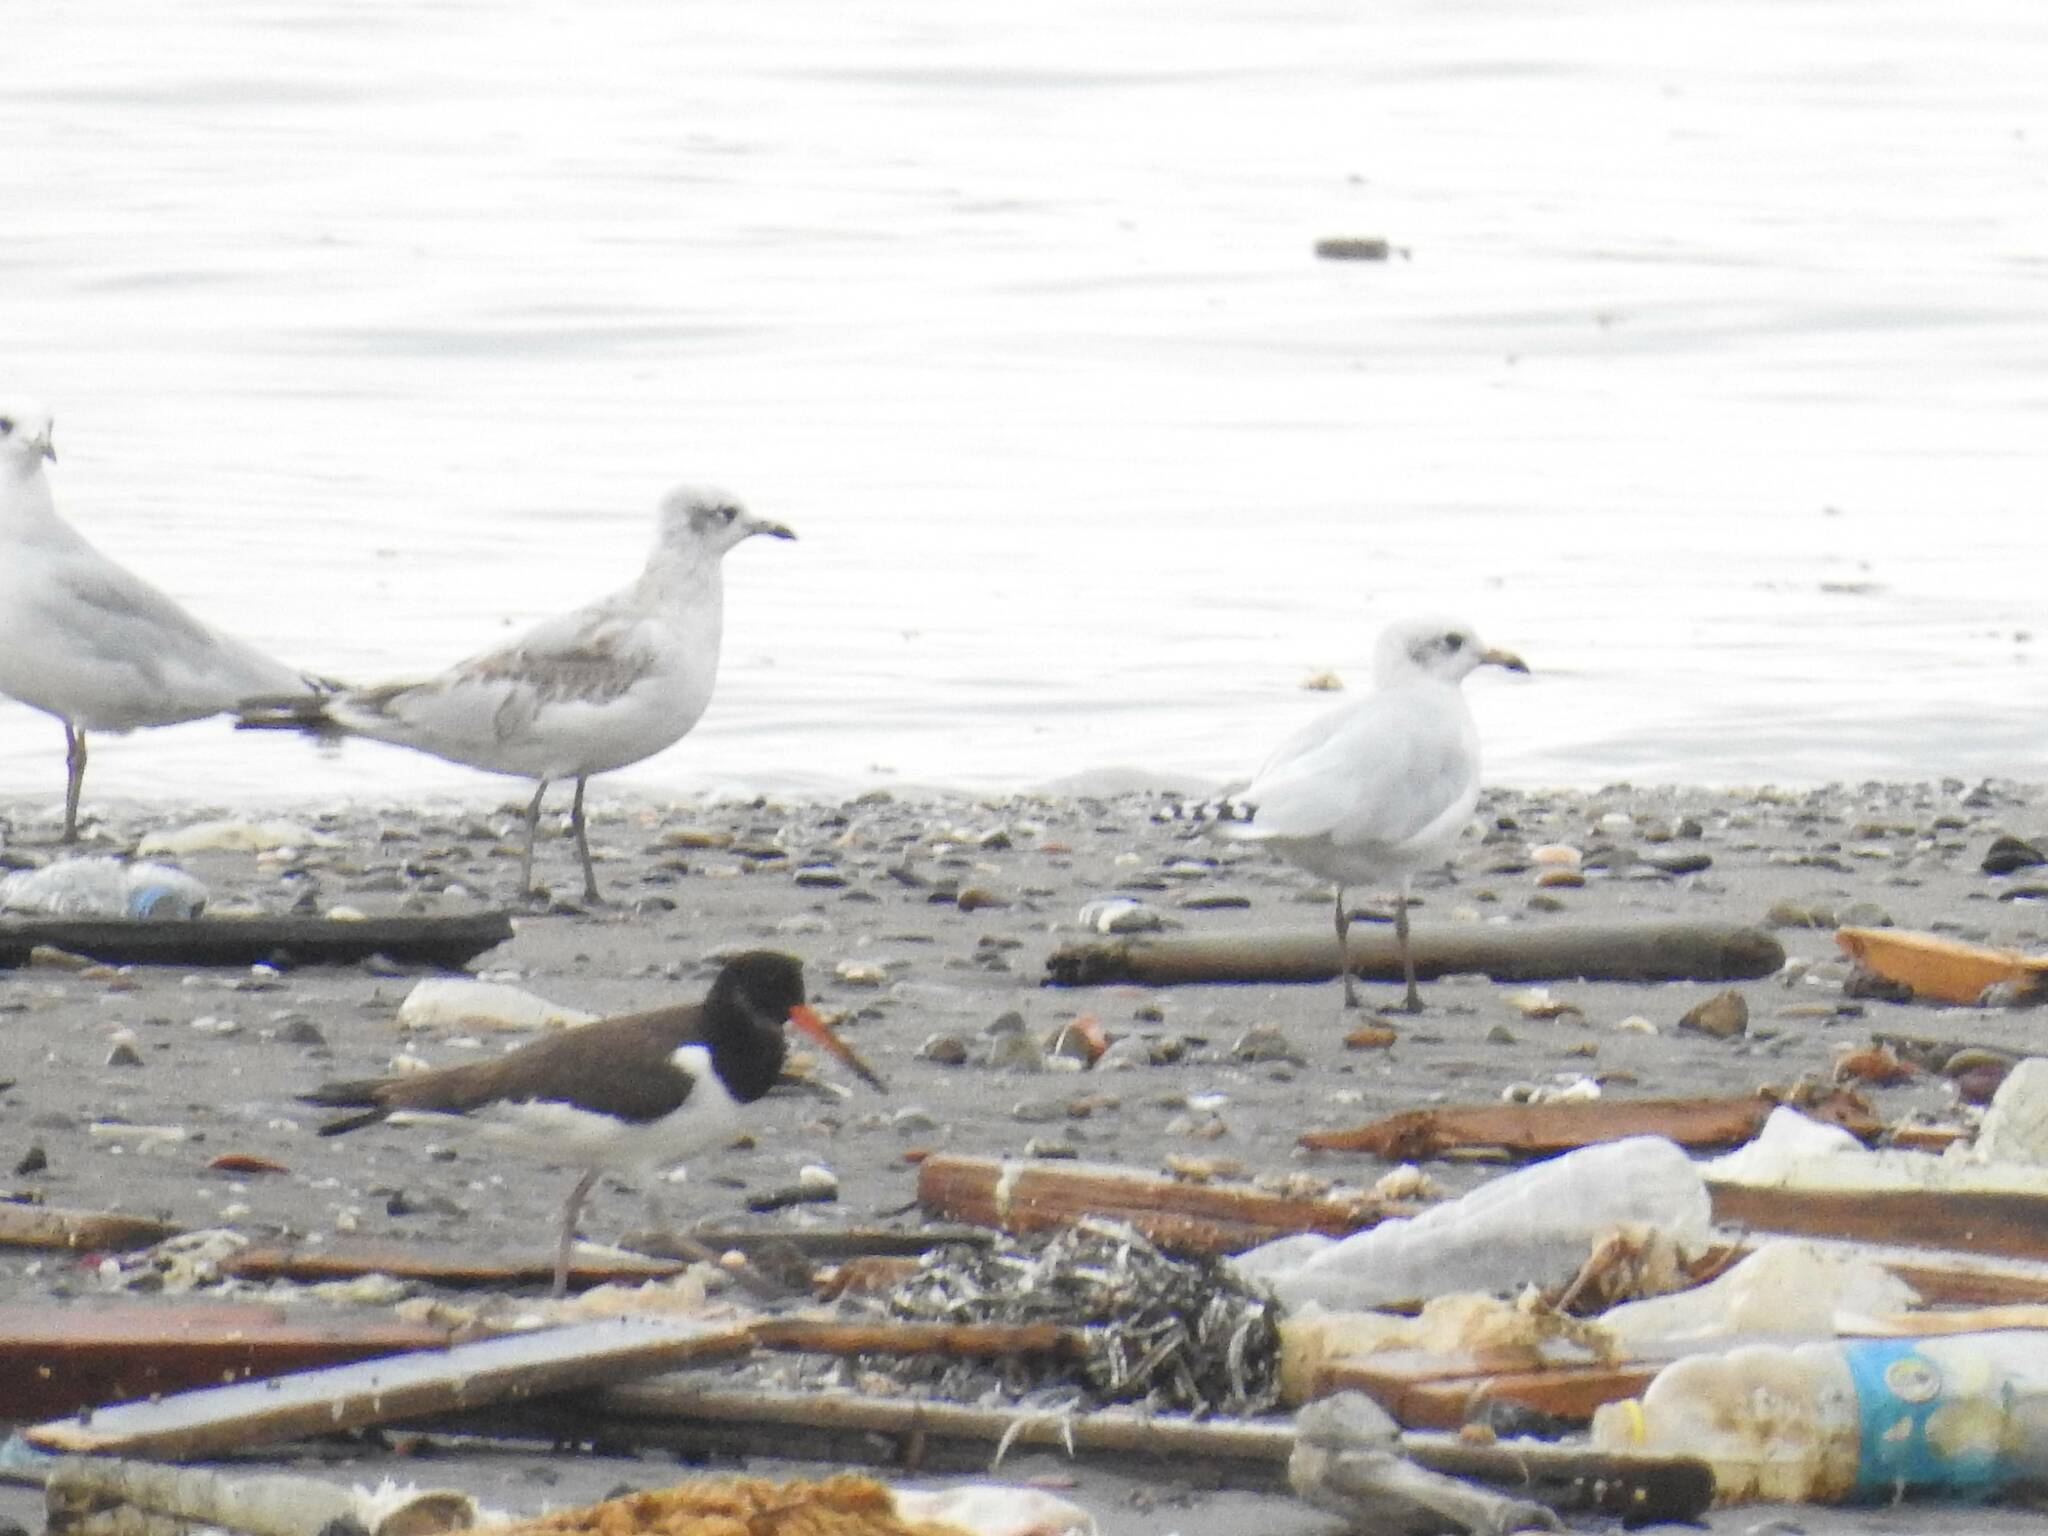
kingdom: Animalia
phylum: Chordata
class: Aves
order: Charadriiformes
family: Laridae
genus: Ichthyaetus
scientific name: Ichthyaetus melanocephalus
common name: Mediterranean gull
